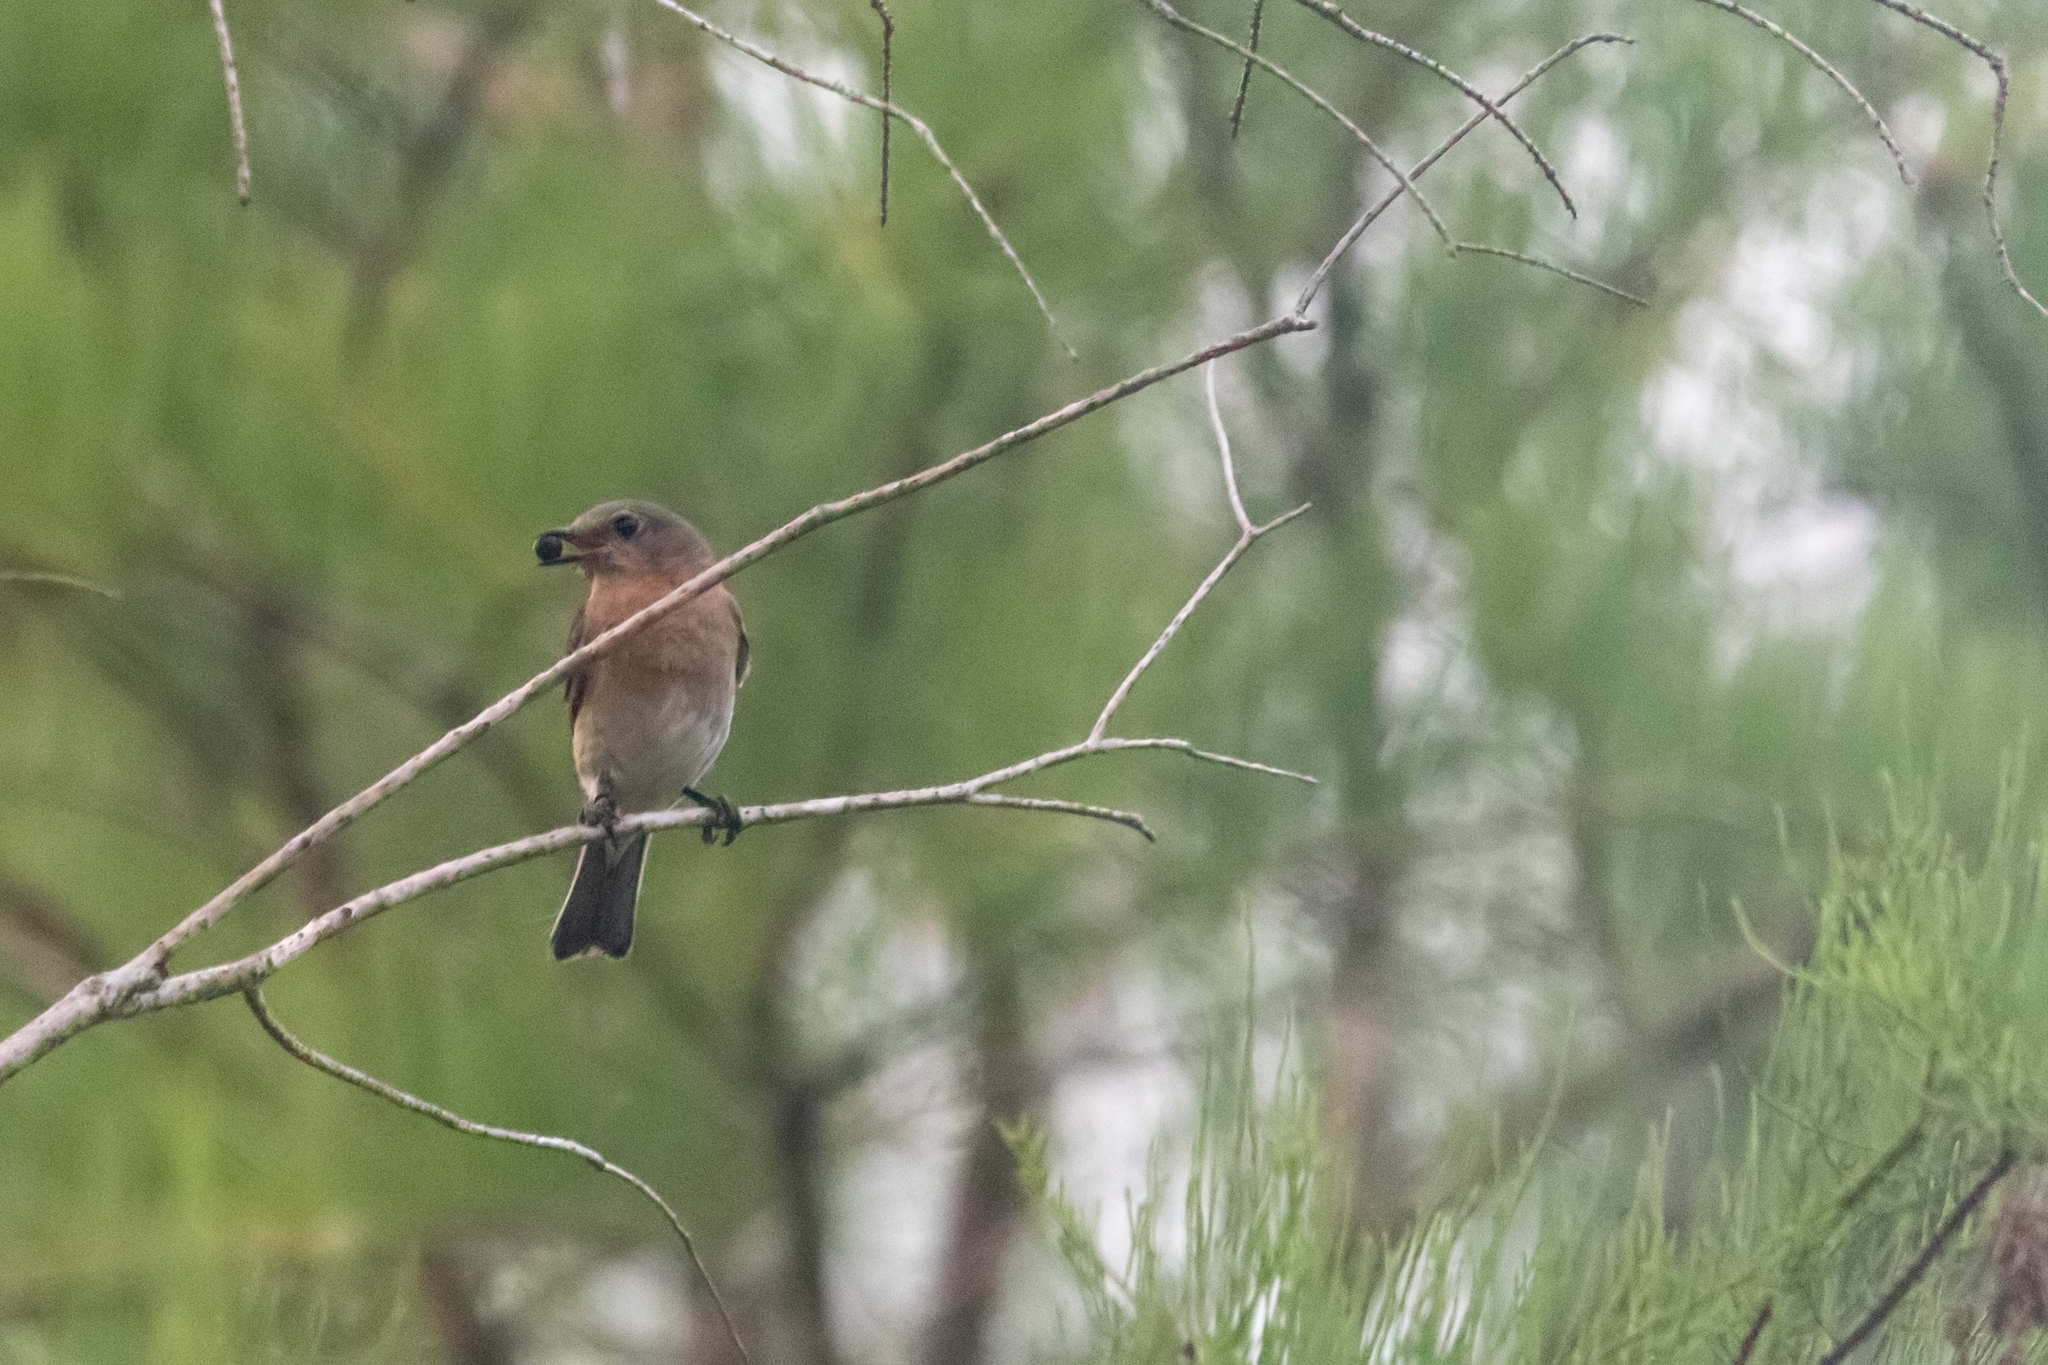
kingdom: Animalia
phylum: Chordata
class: Aves
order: Passeriformes
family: Turdidae
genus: Sialia
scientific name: Sialia sialis
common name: Eastern bluebird
